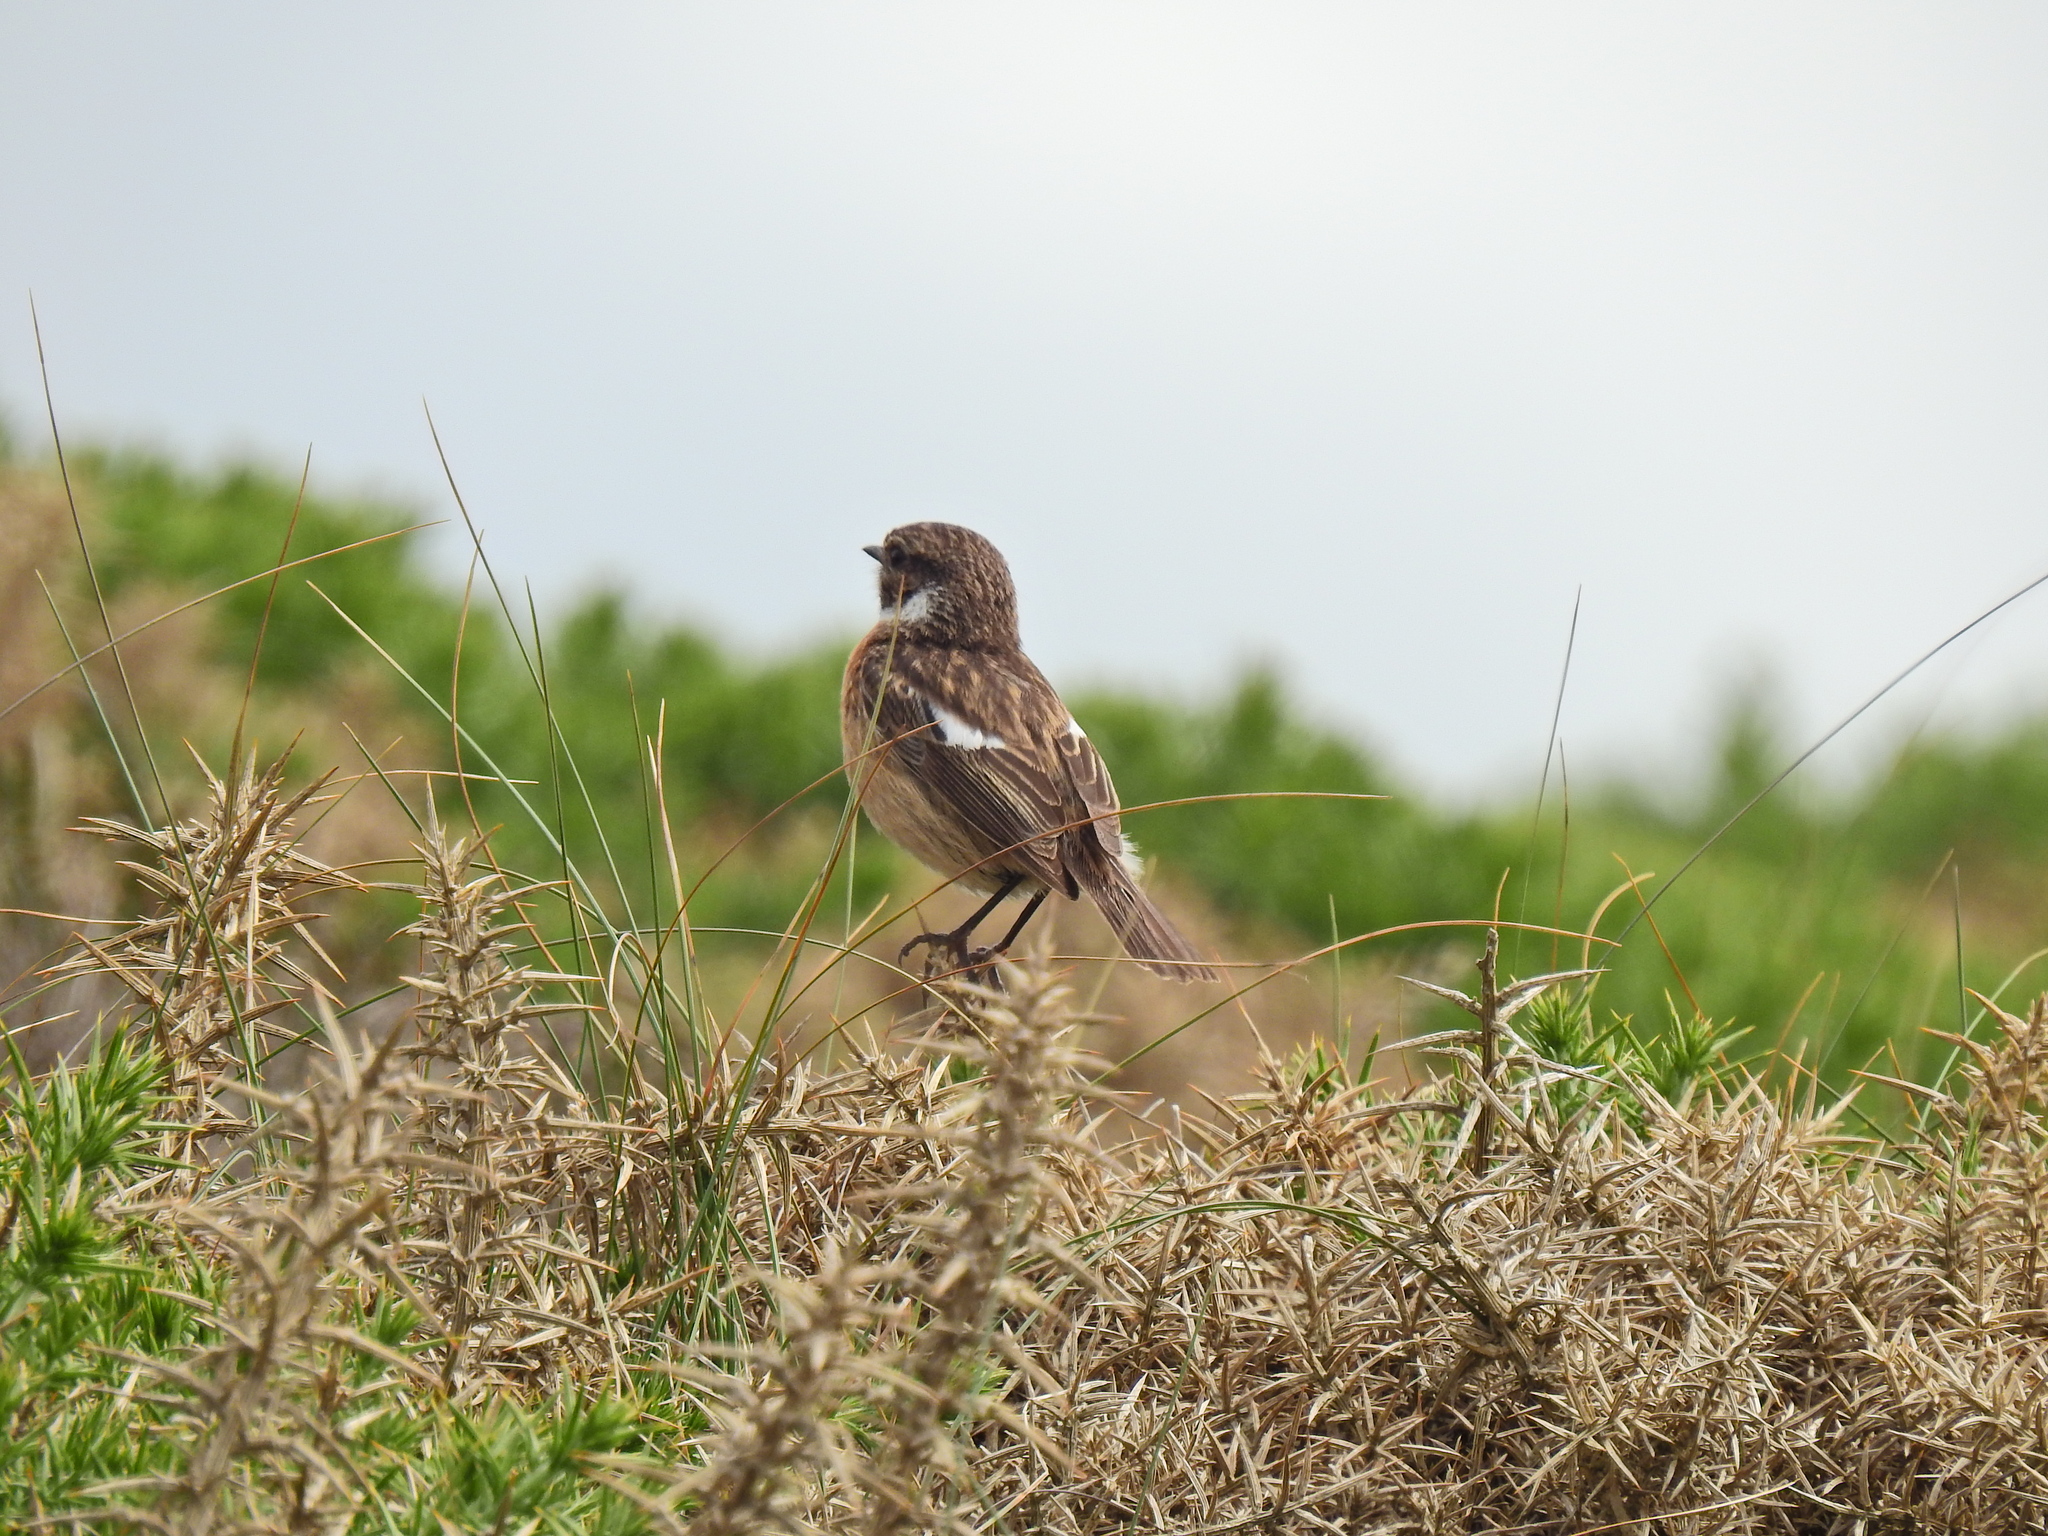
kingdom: Animalia
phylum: Chordata
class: Aves
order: Passeriformes
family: Muscicapidae
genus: Saxicola
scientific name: Saxicola rubicola
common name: European stonechat
